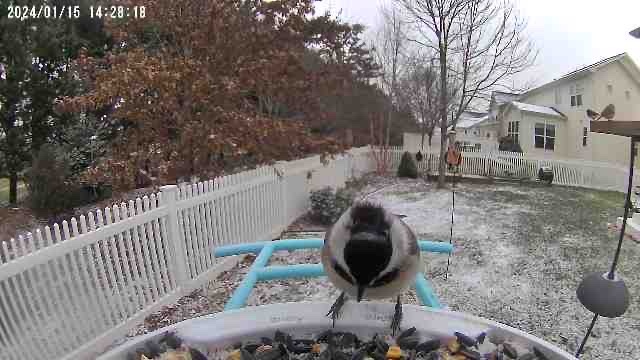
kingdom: Animalia
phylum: Chordata
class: Aves
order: Passeriformes
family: Paridae
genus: Poecile
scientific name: Poecile carolinensis
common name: Carolina chickadee
